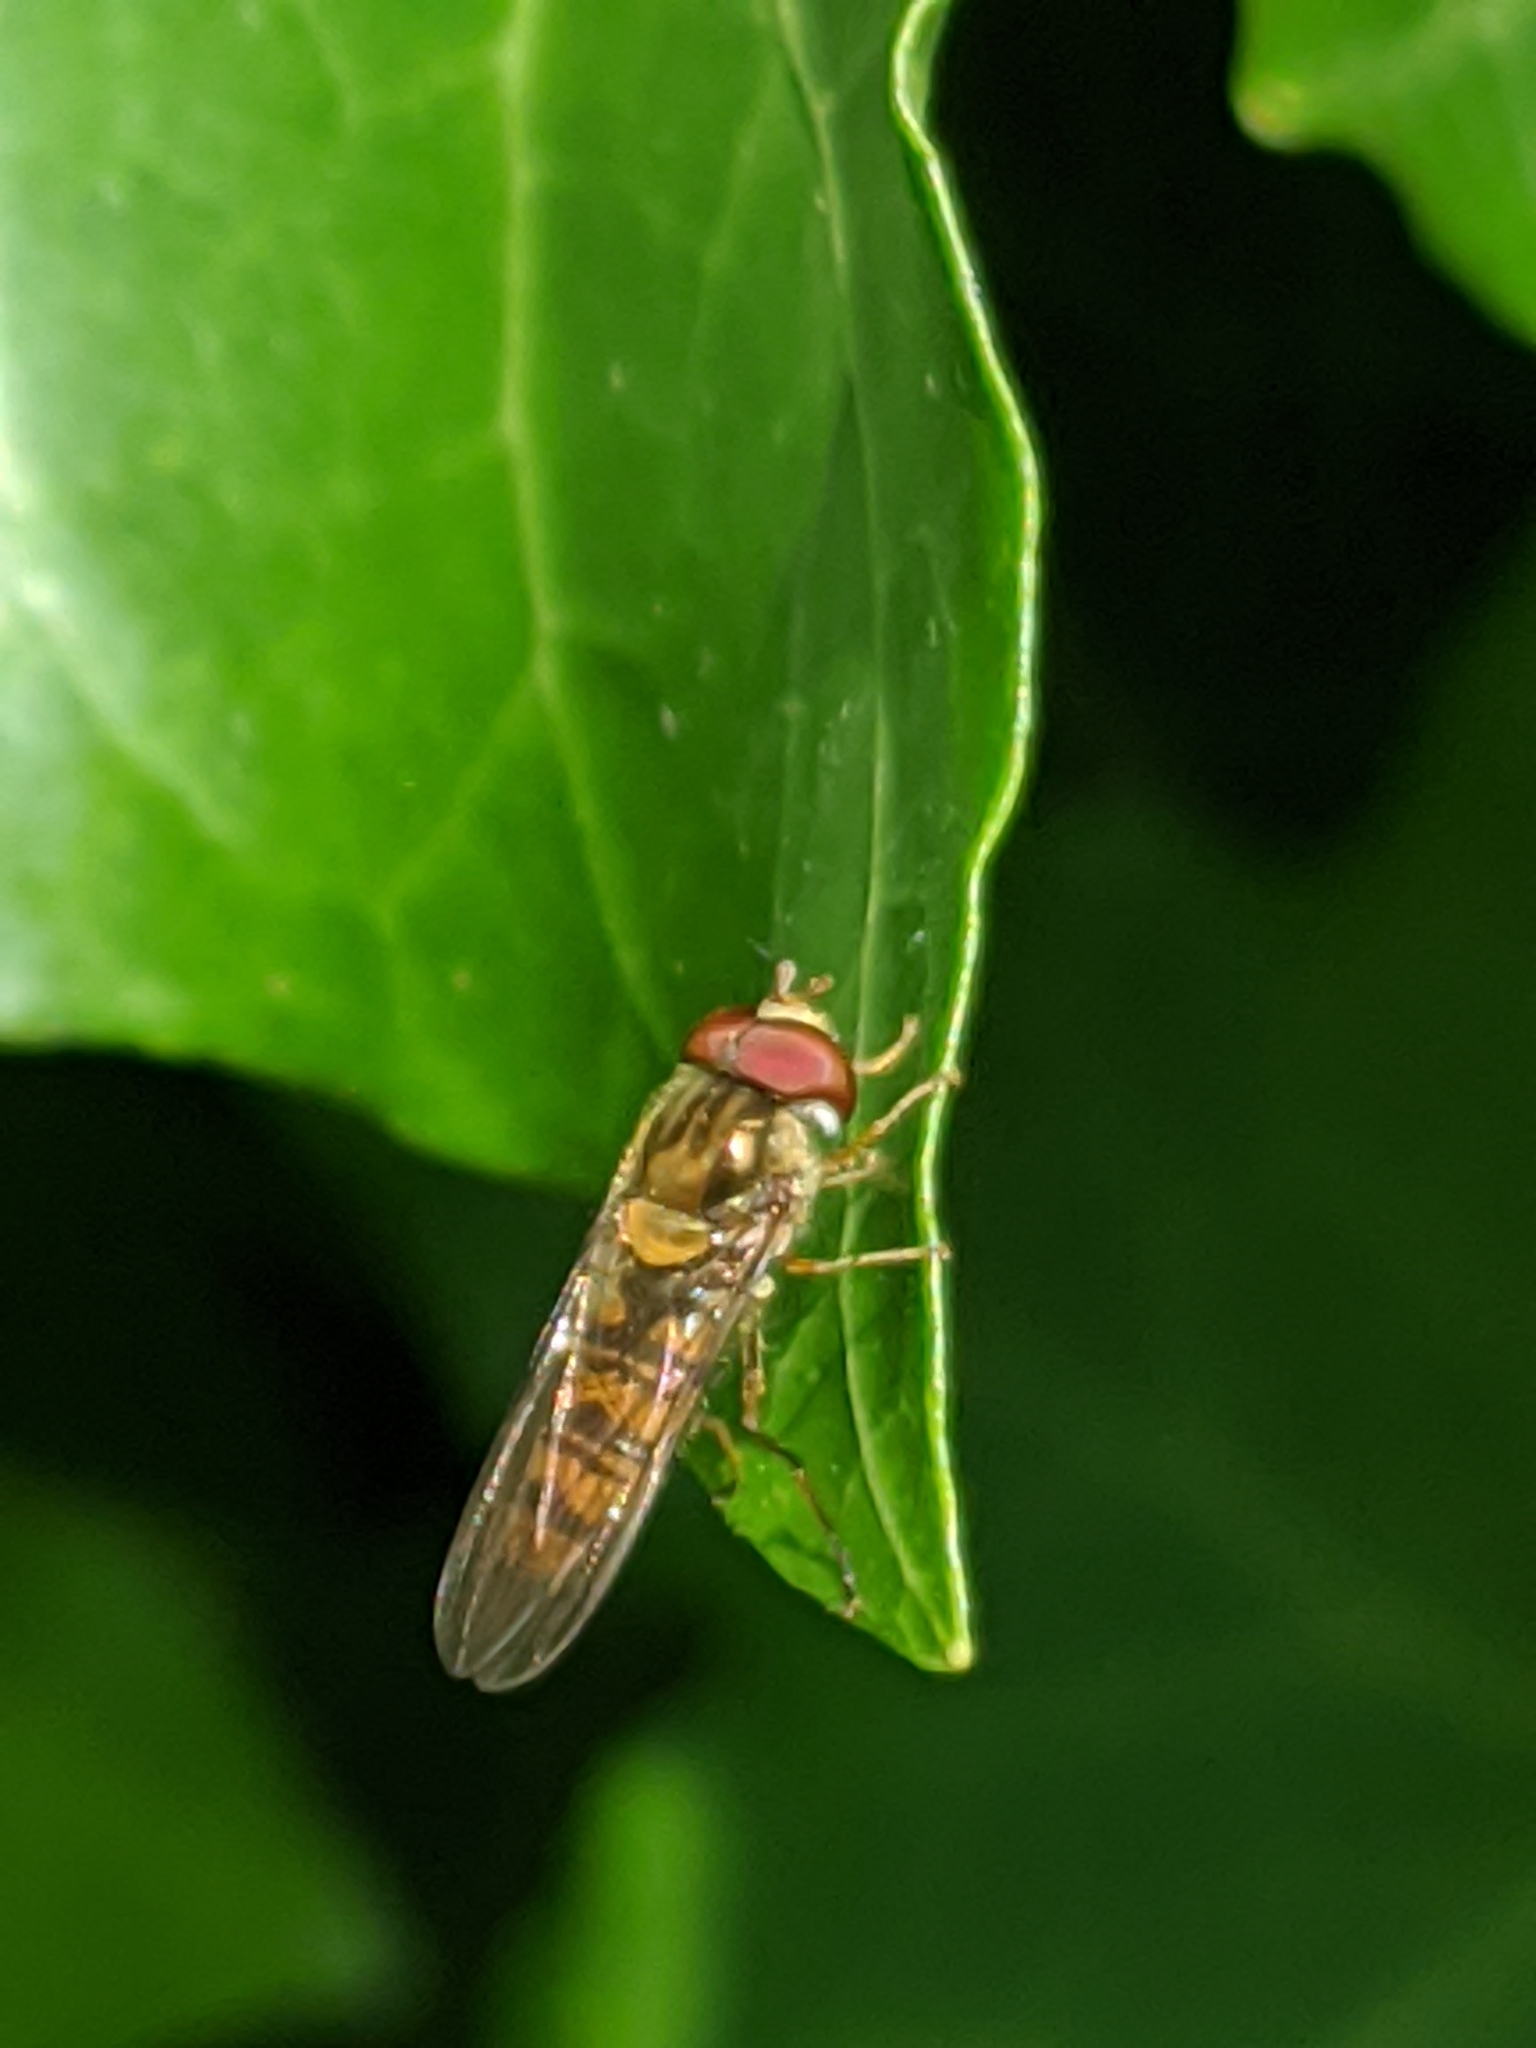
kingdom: Animalia
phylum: Arthropoda
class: Insecta
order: Diptera
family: Syrphidae
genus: Episyrphus
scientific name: Episyrphus balteatus
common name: Marmalade hoverfly
